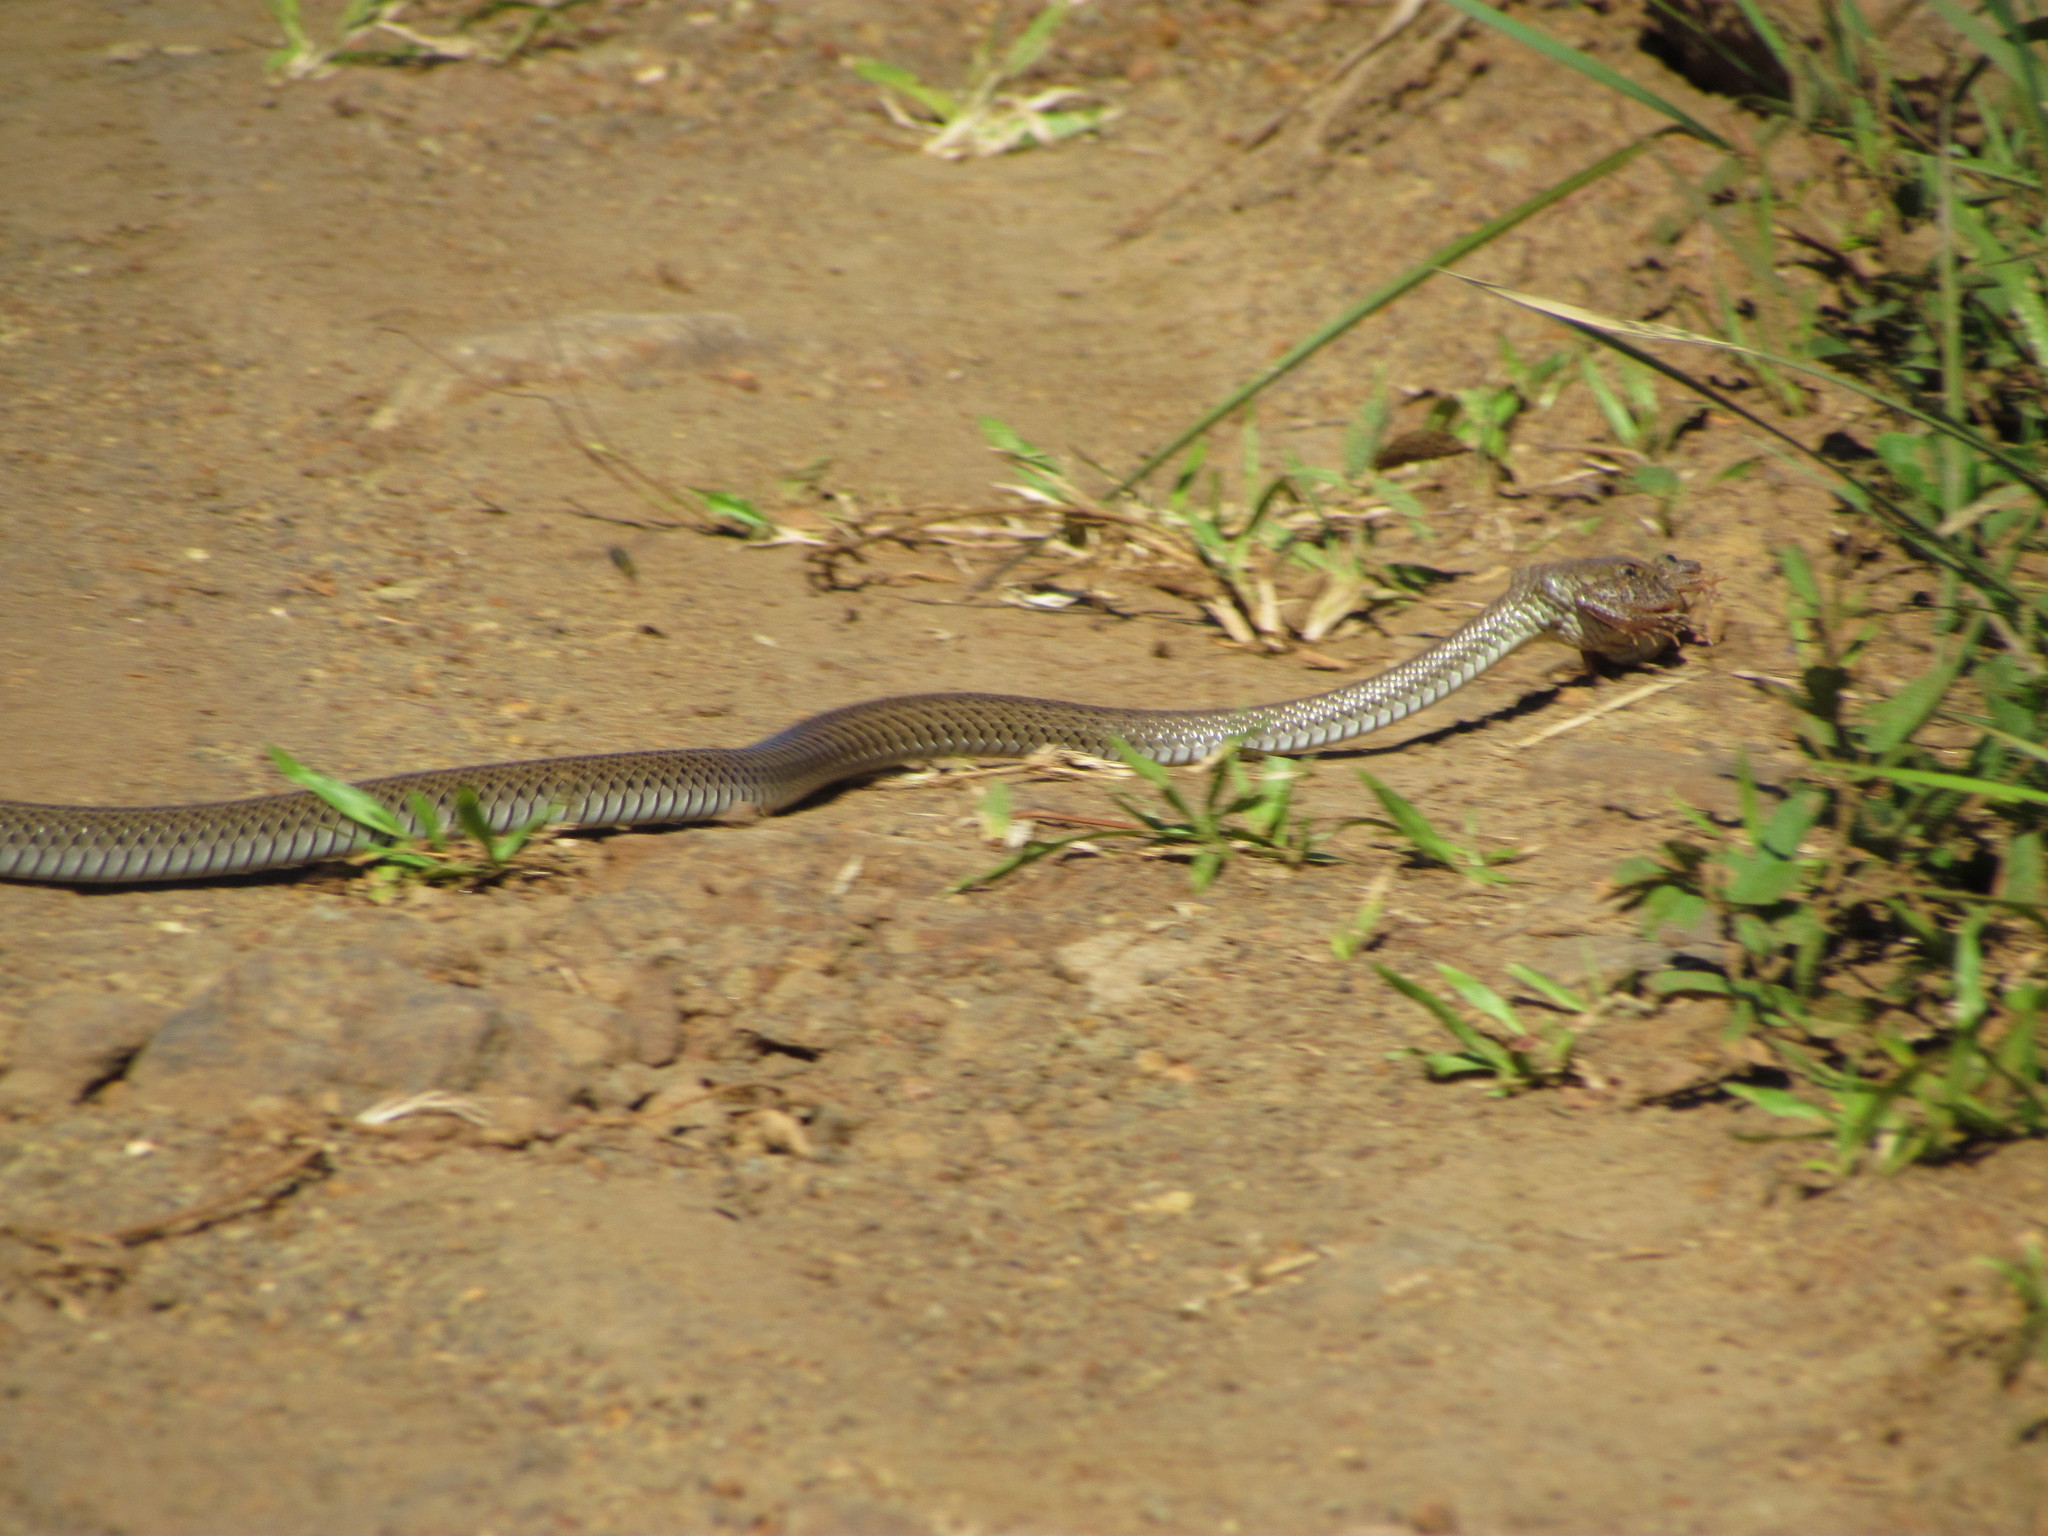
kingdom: Animalia
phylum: Chordata
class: Squamata
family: Colubridae
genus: Philodryas
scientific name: Philodryas patagoniensis
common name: Patagonia green racer
